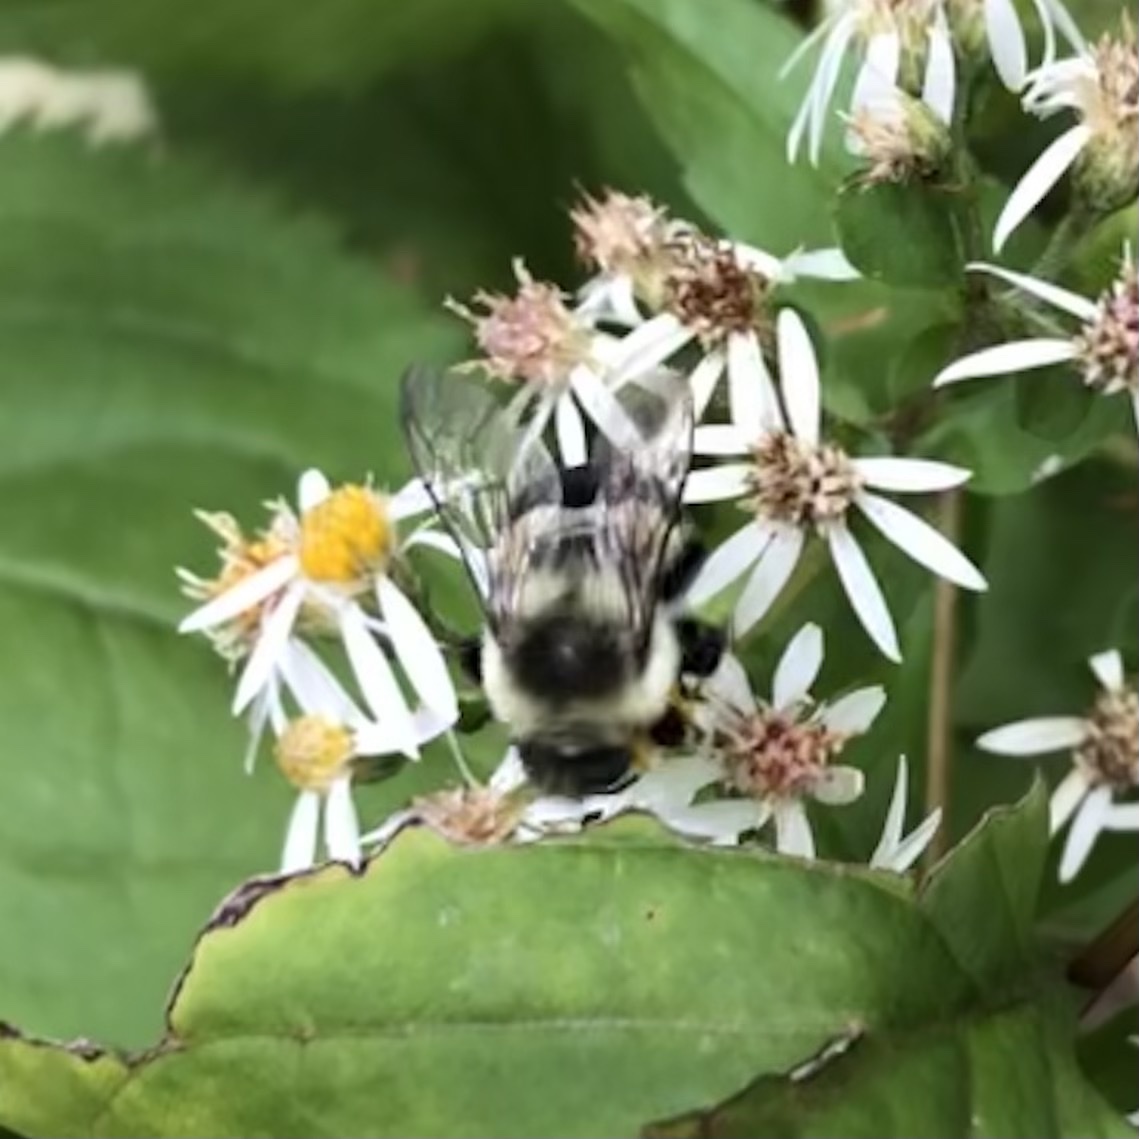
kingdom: Animalia
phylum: Arthropoda
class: Insecta
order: Hymenoptera
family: Apidae
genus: Bombus
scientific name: Bombus impatiens
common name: Common eastern bumble bee
